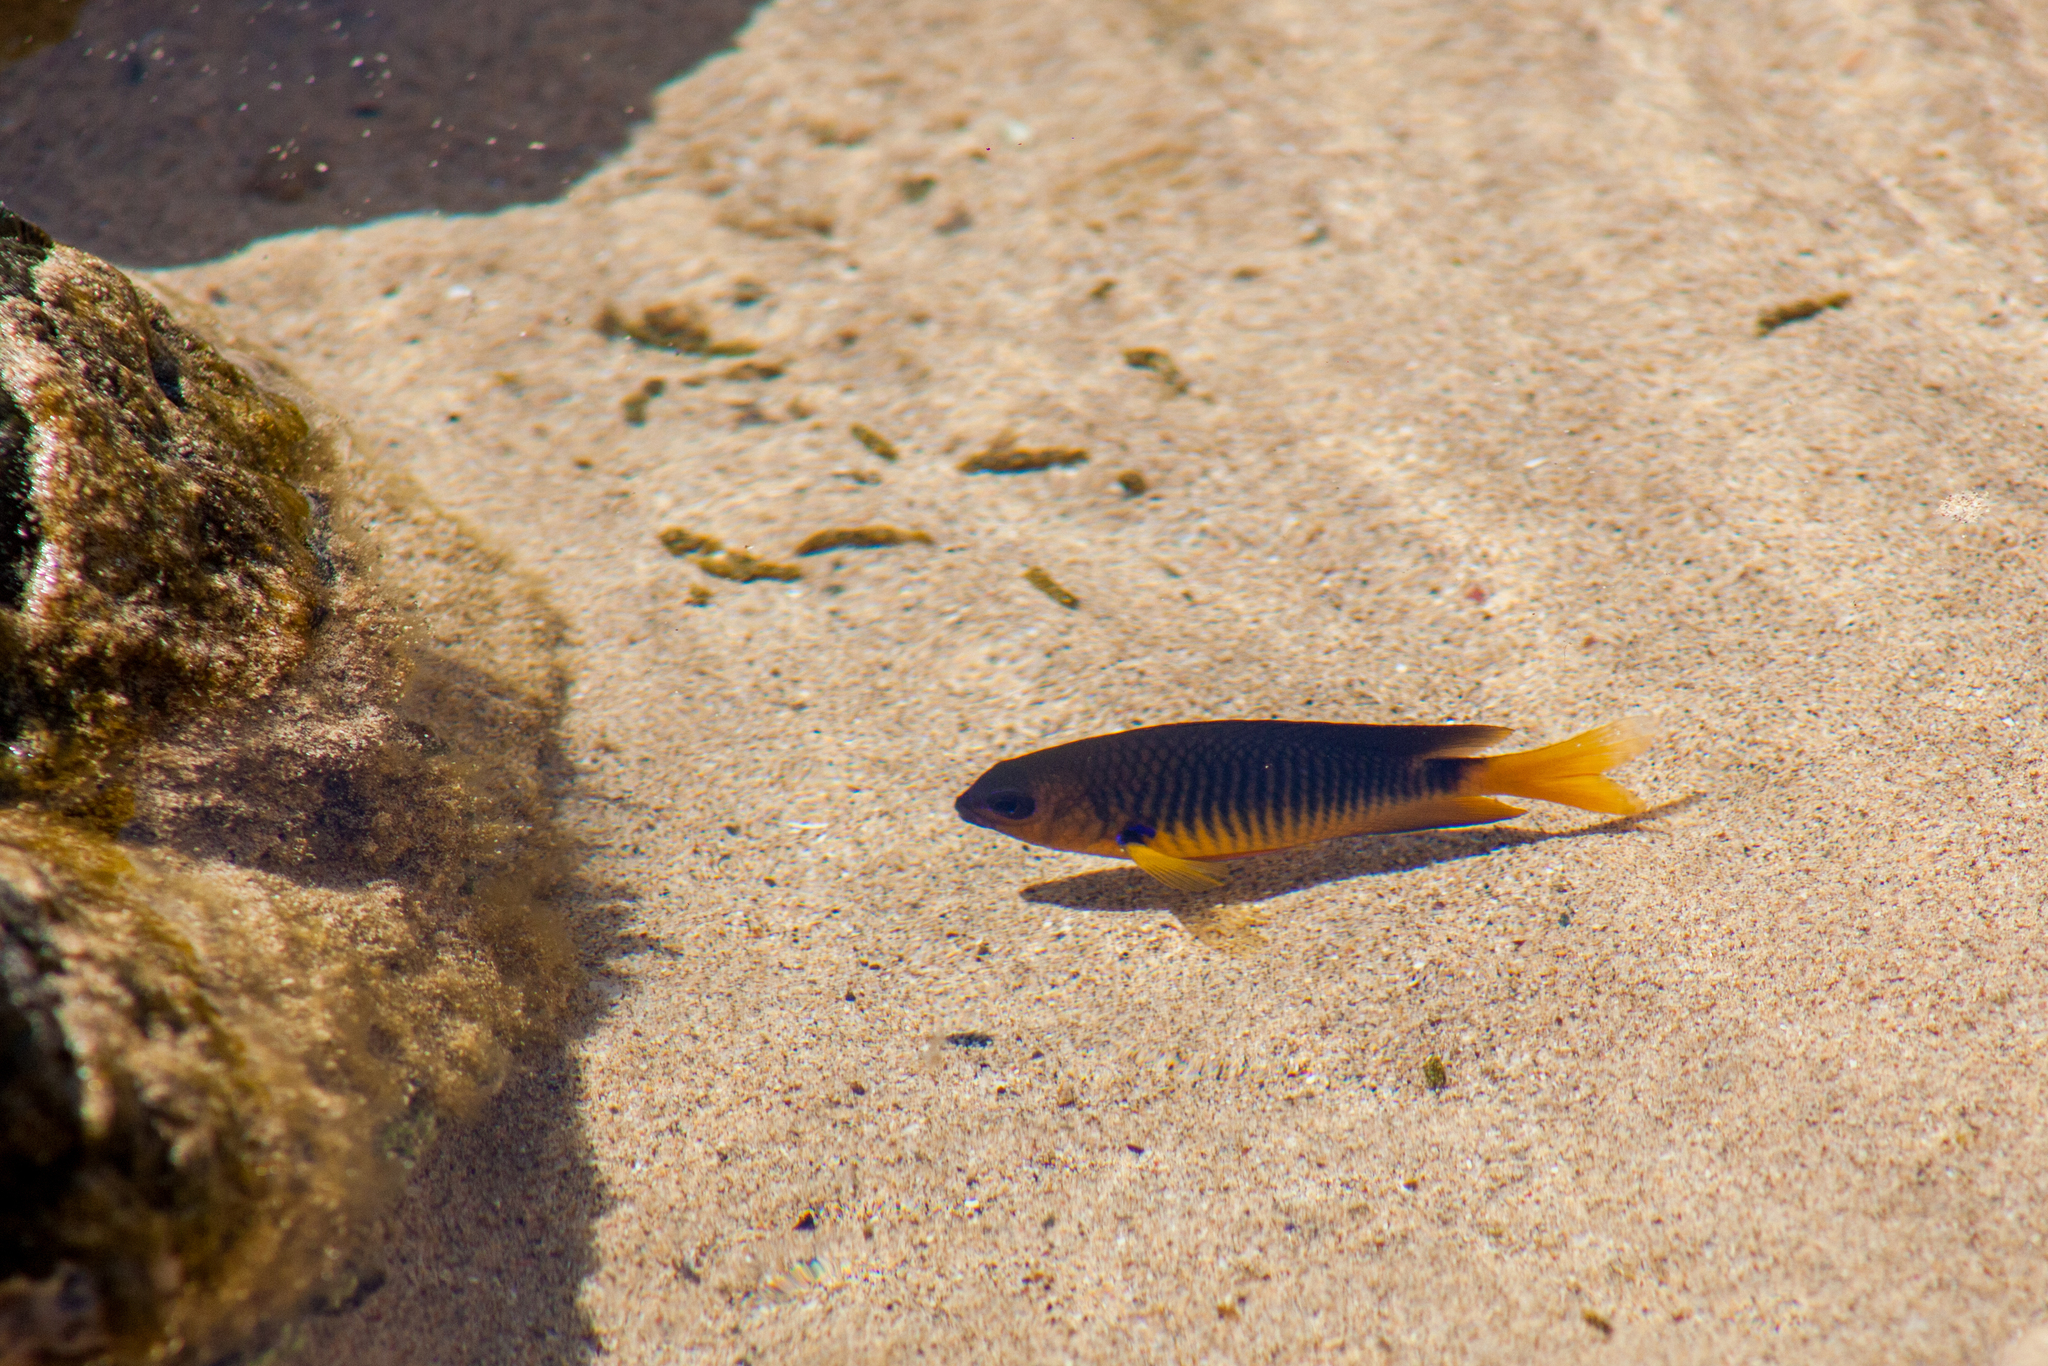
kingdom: Animalia
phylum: Chordata
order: Perciformes
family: Pomacentridae
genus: Stegastes
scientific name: Stegastes rocasensis
